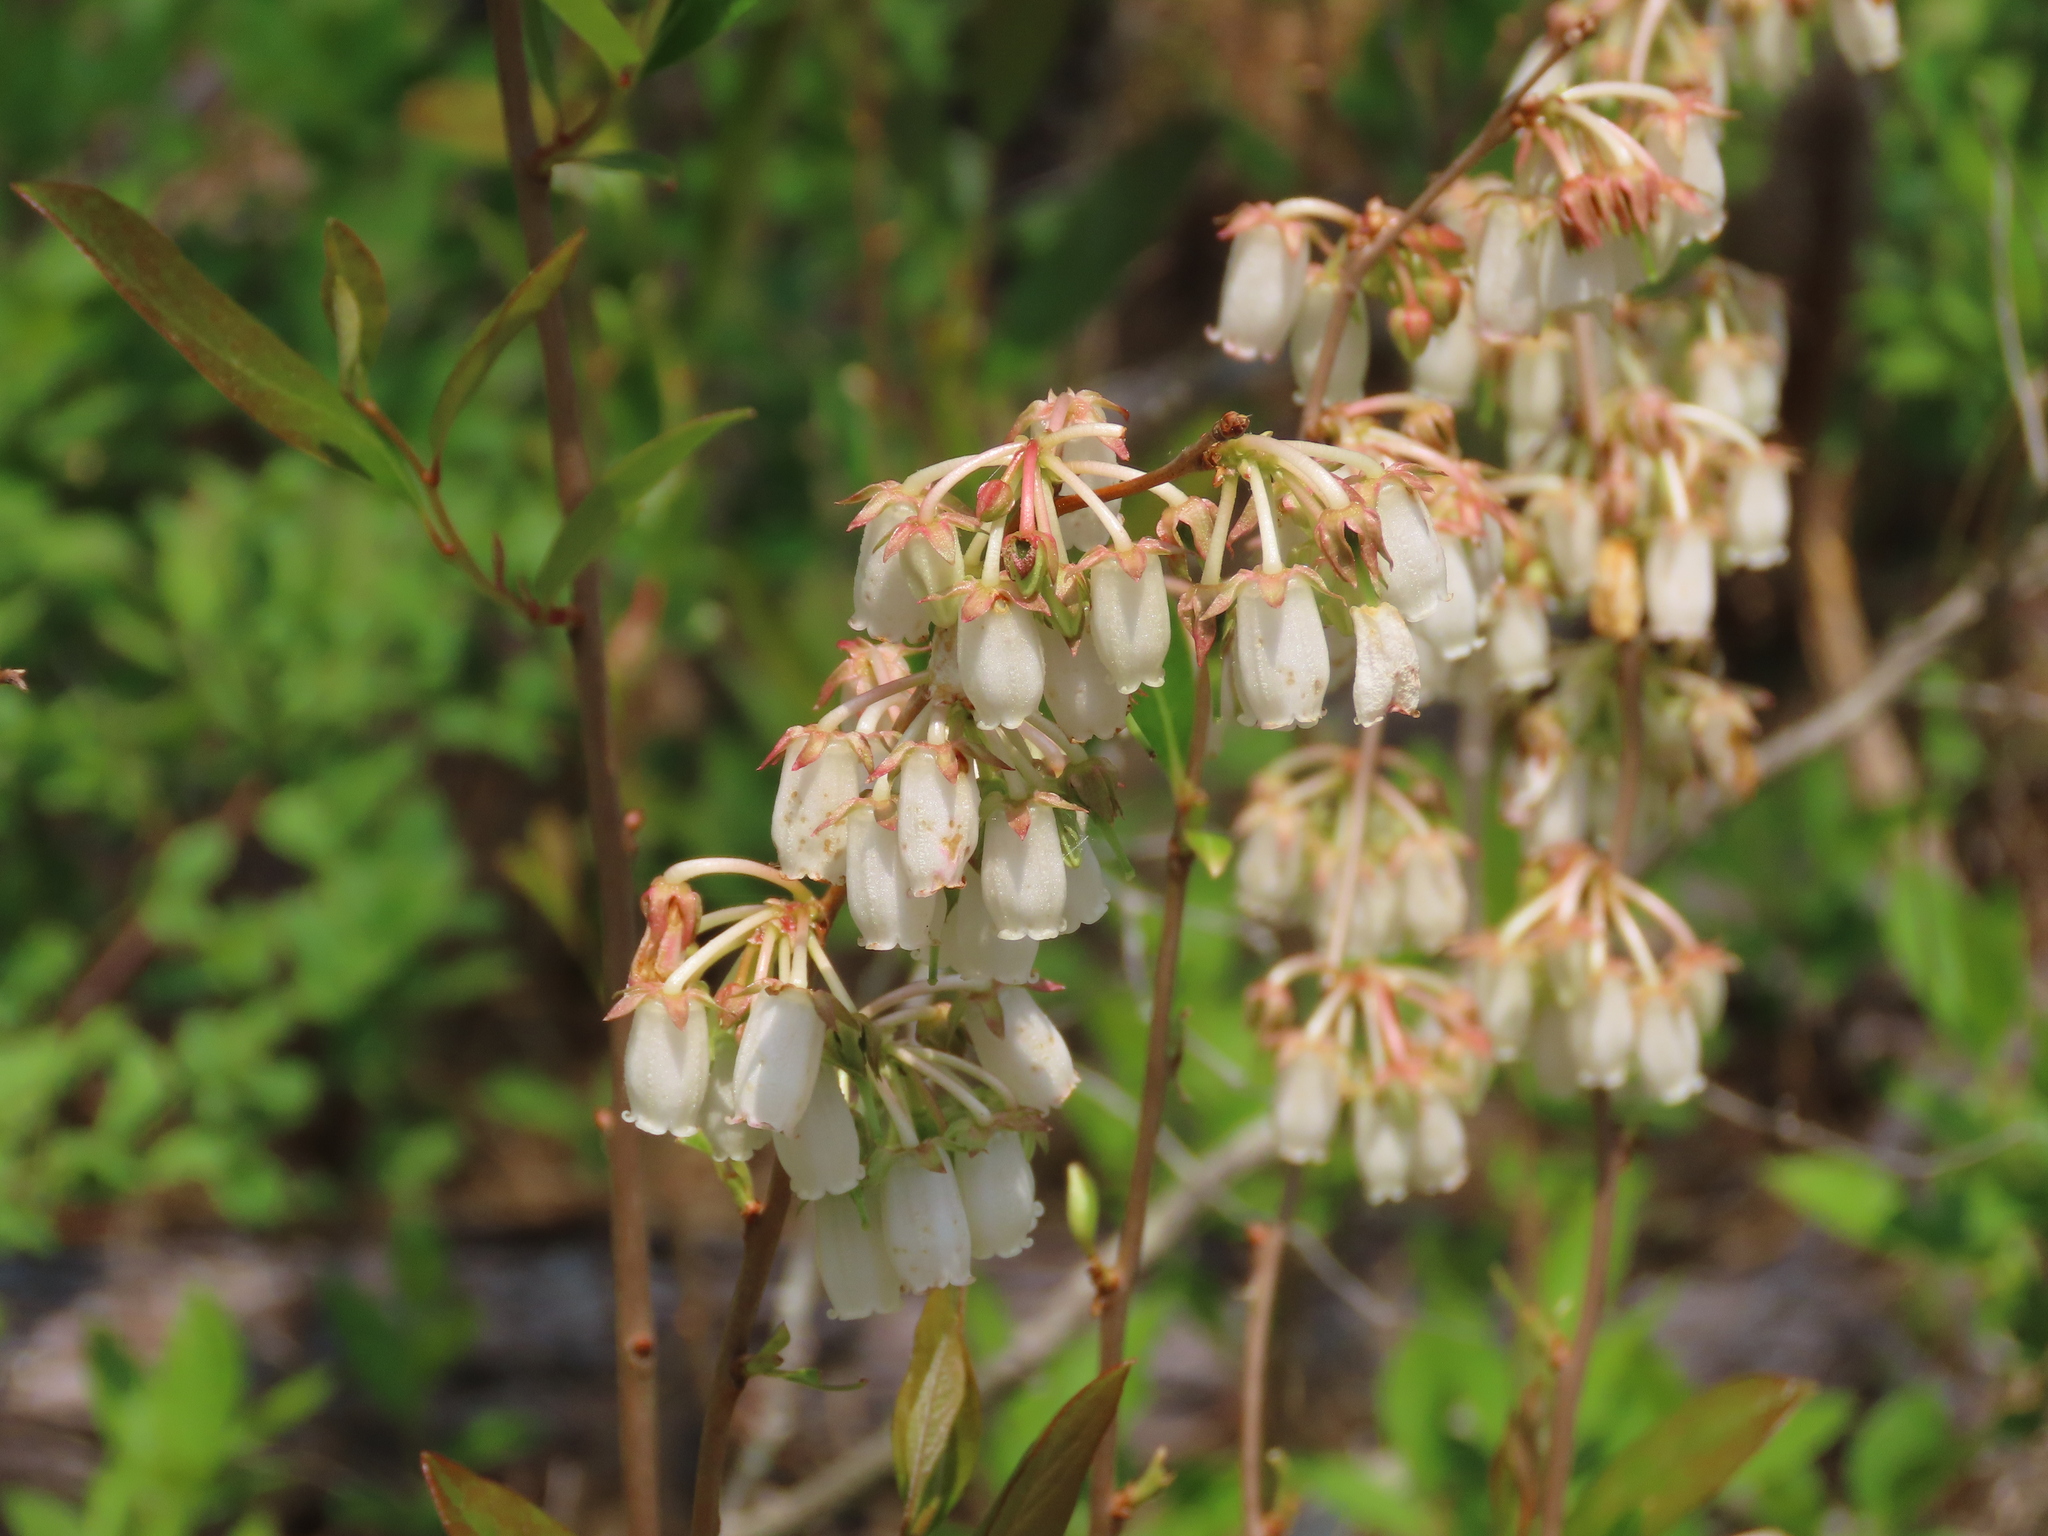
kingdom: Plantae
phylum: Tracheophyta
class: Magnoliopsida
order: Ericales
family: Ericaceae
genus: Lyonia
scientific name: Lyonia mariana
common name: Staggerbush
